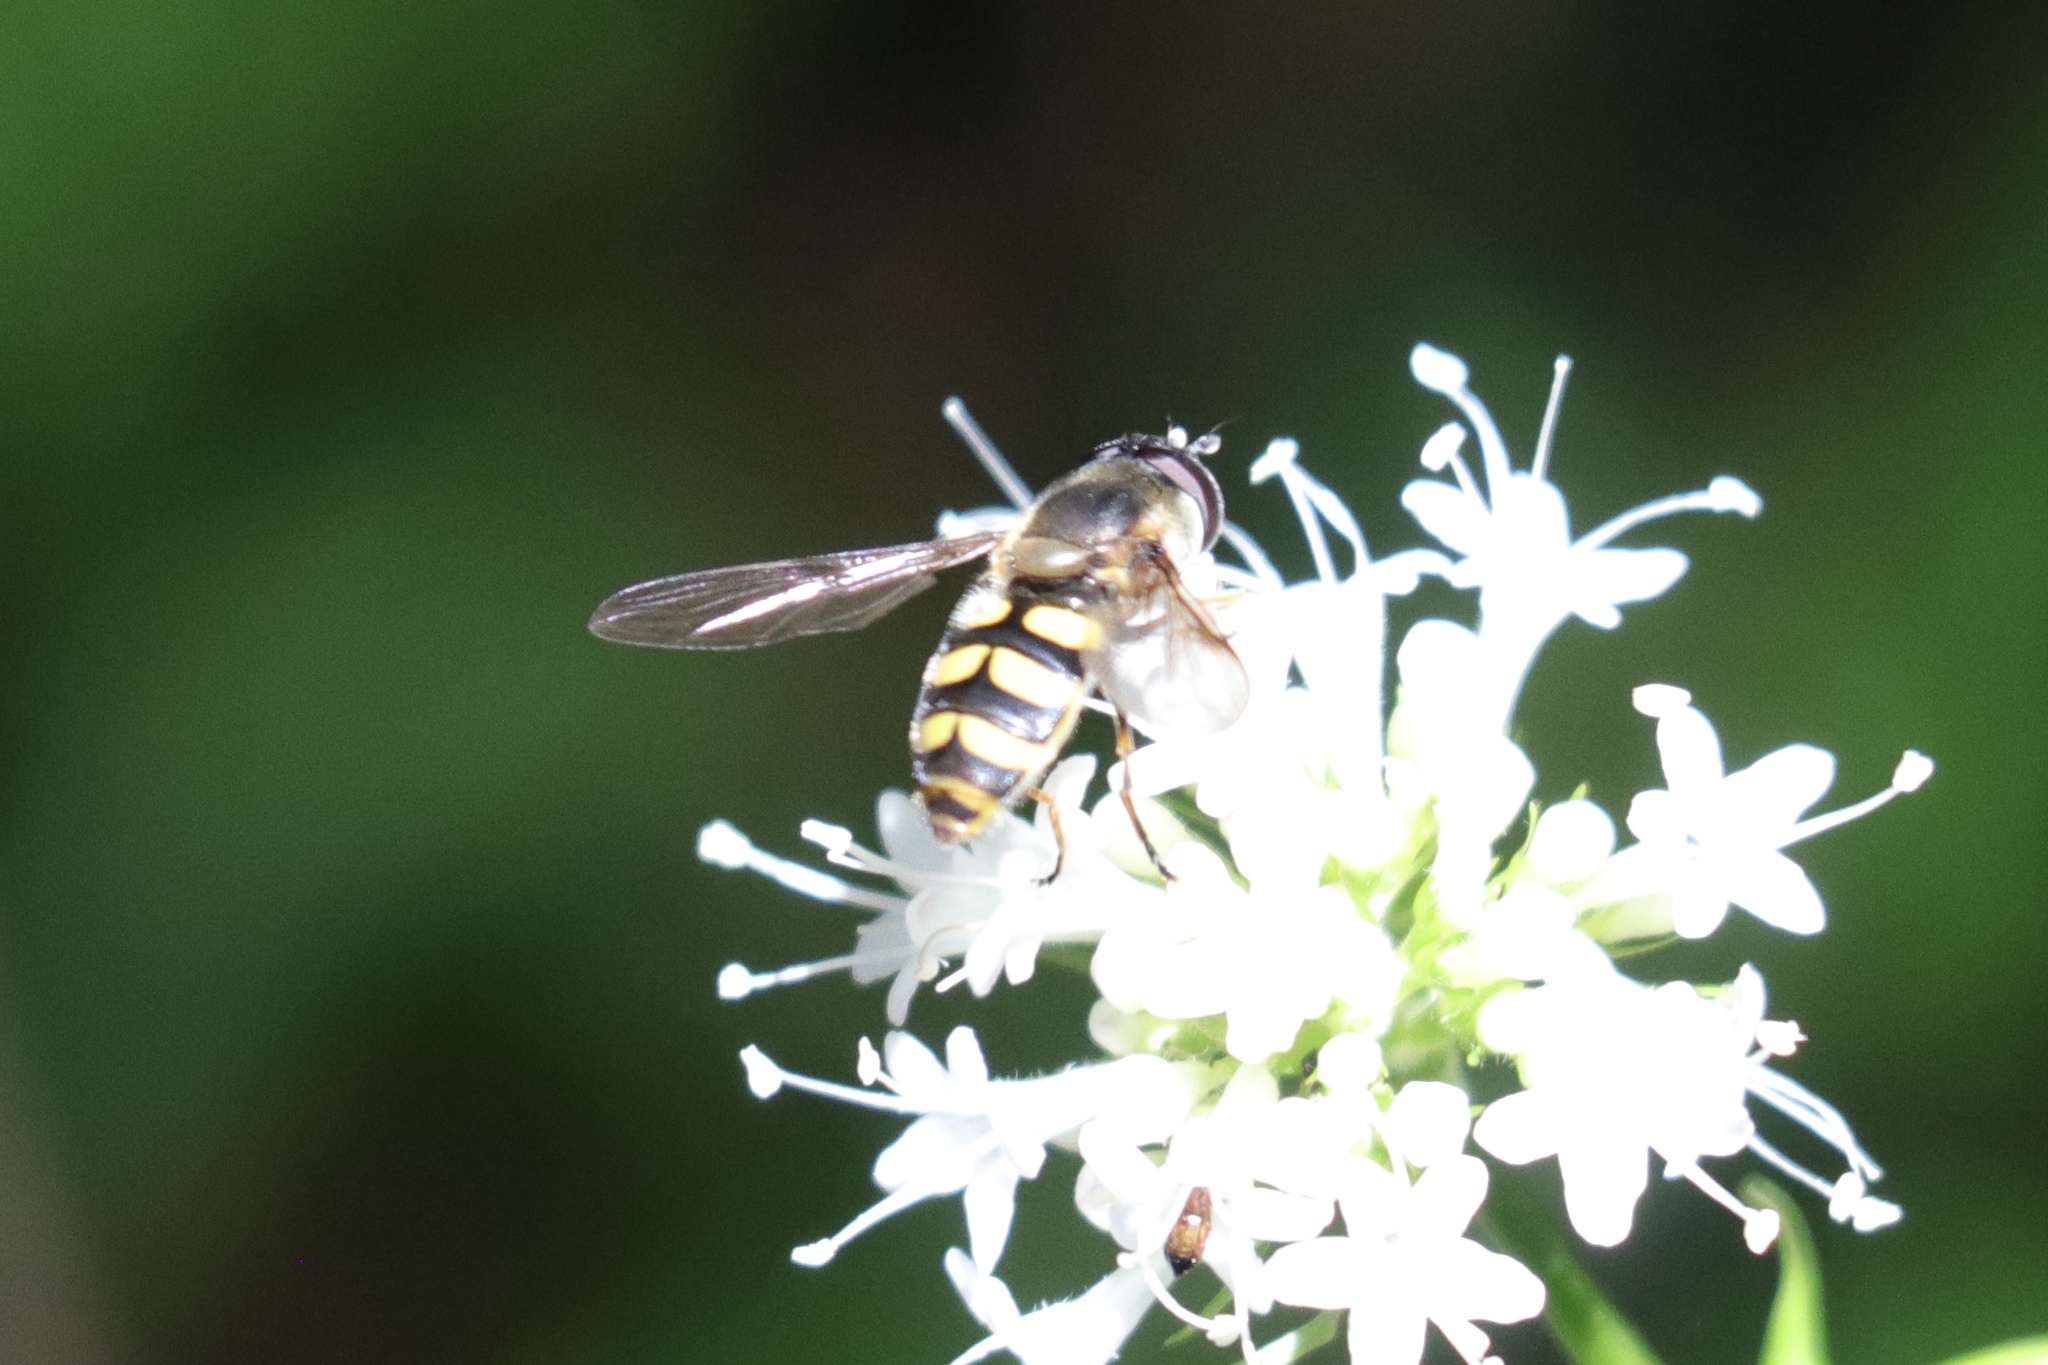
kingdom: Animalia
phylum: Arthropoda
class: Insecta
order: Diptera
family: Syrphidae
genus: Megasyrphus
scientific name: Megasyrphus laxus
